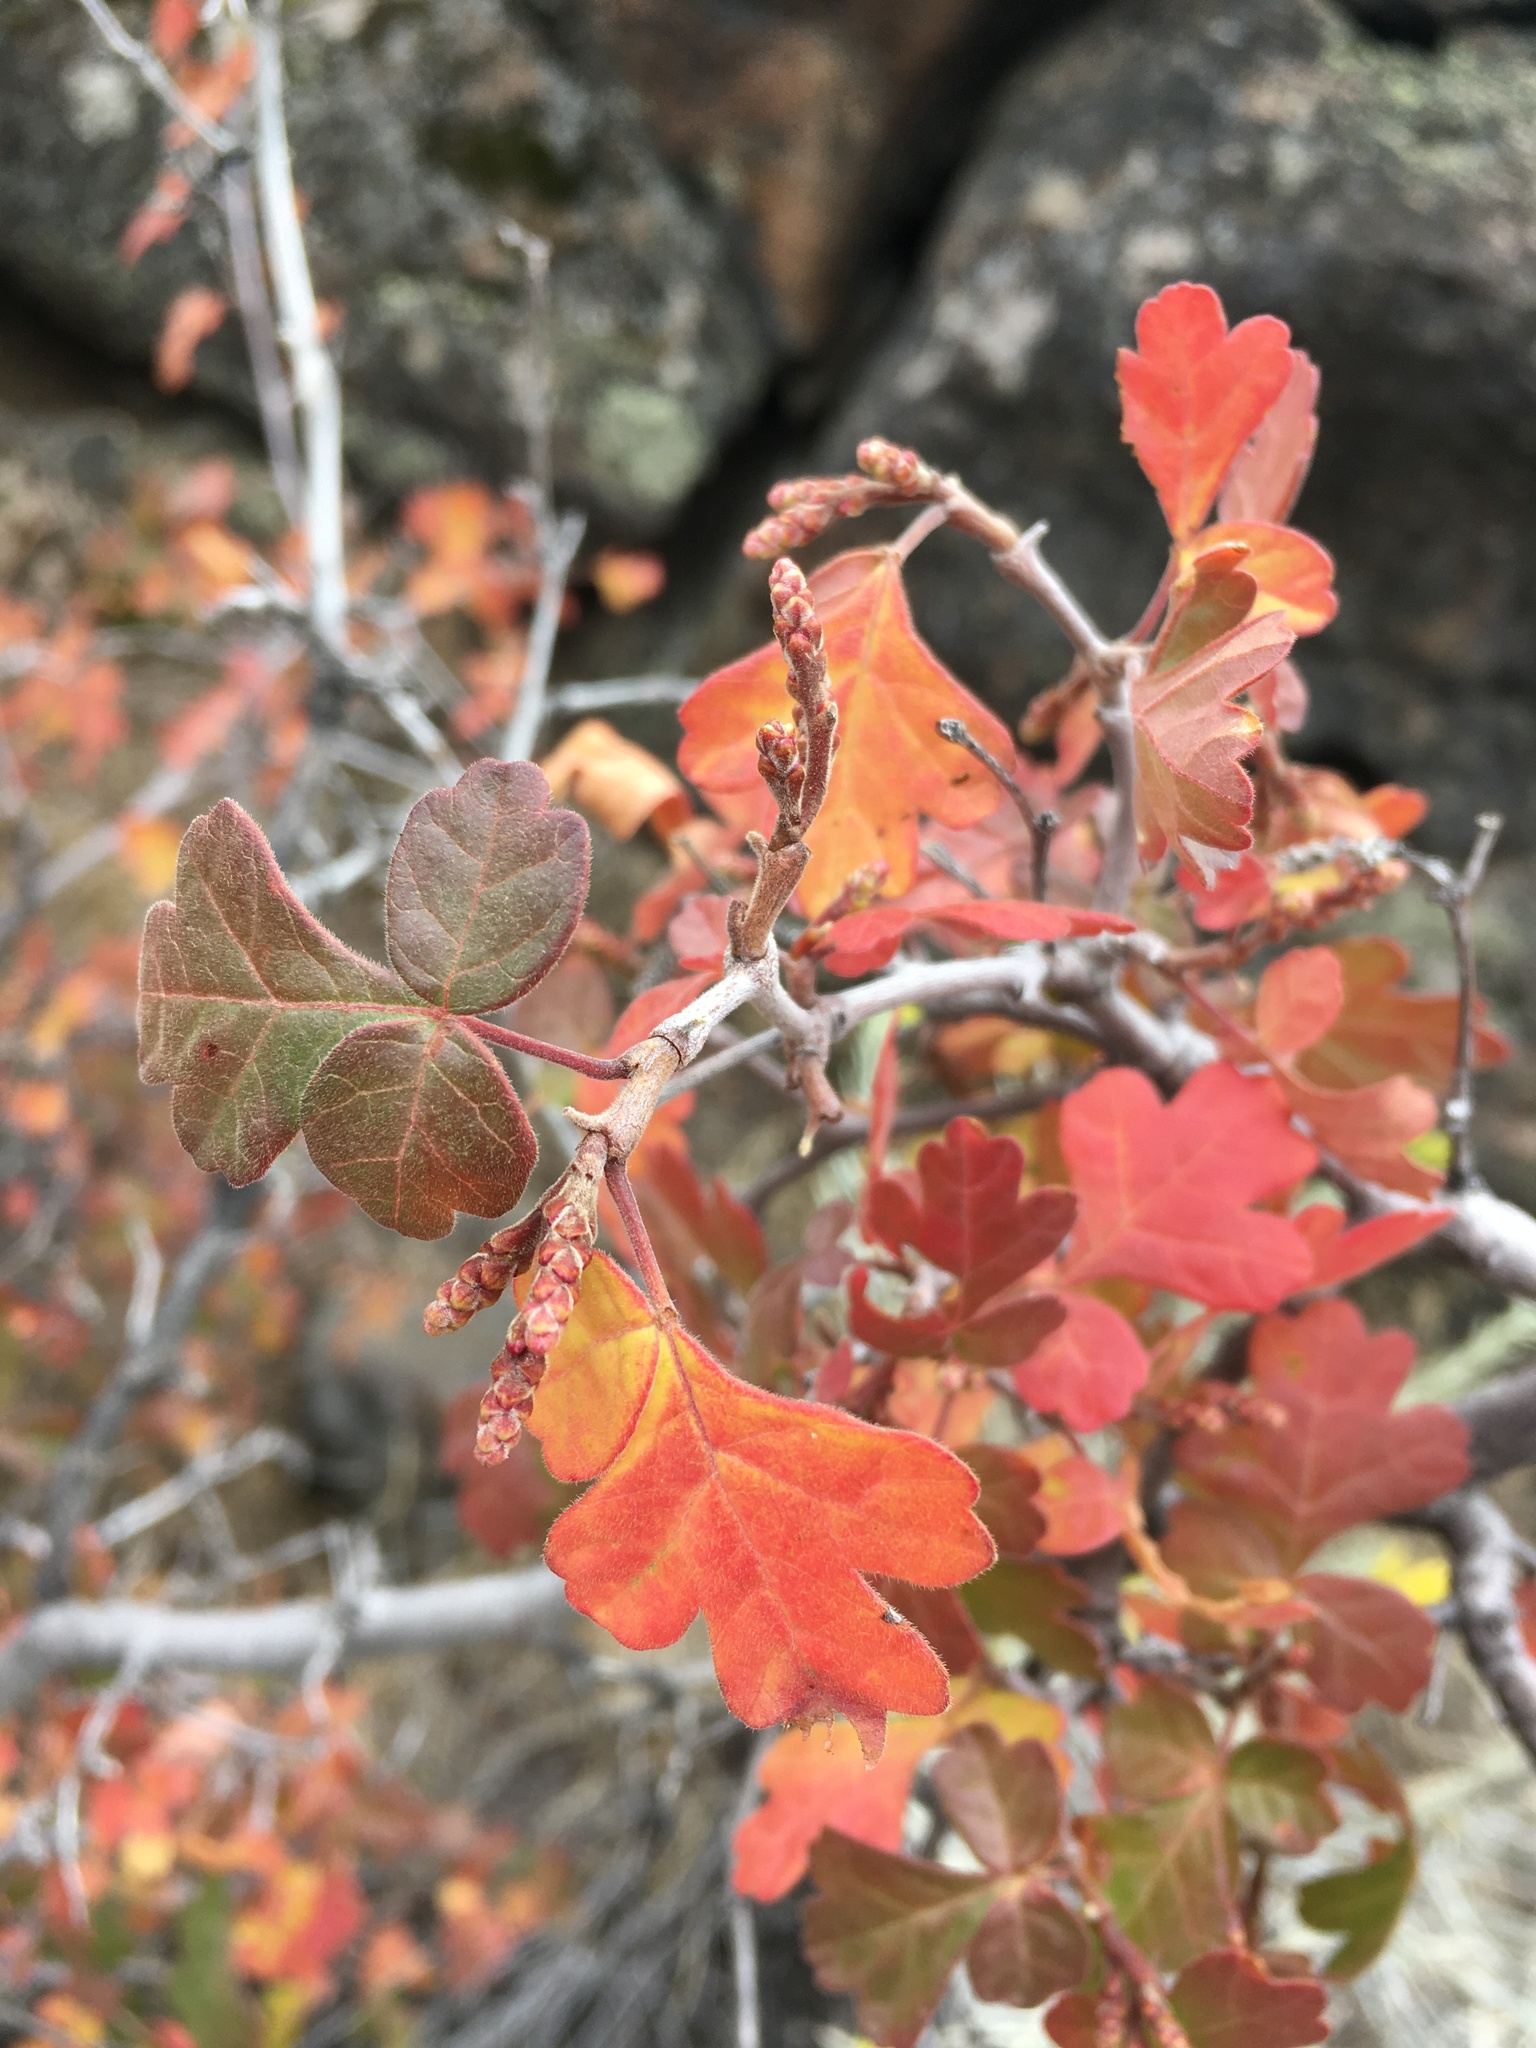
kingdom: Plantae
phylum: Tracheophyta
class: Magnoliopsida
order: Sapindales
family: Anacardiaceae
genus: Rhus
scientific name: Rhus aromatica
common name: Aromatic sumac
